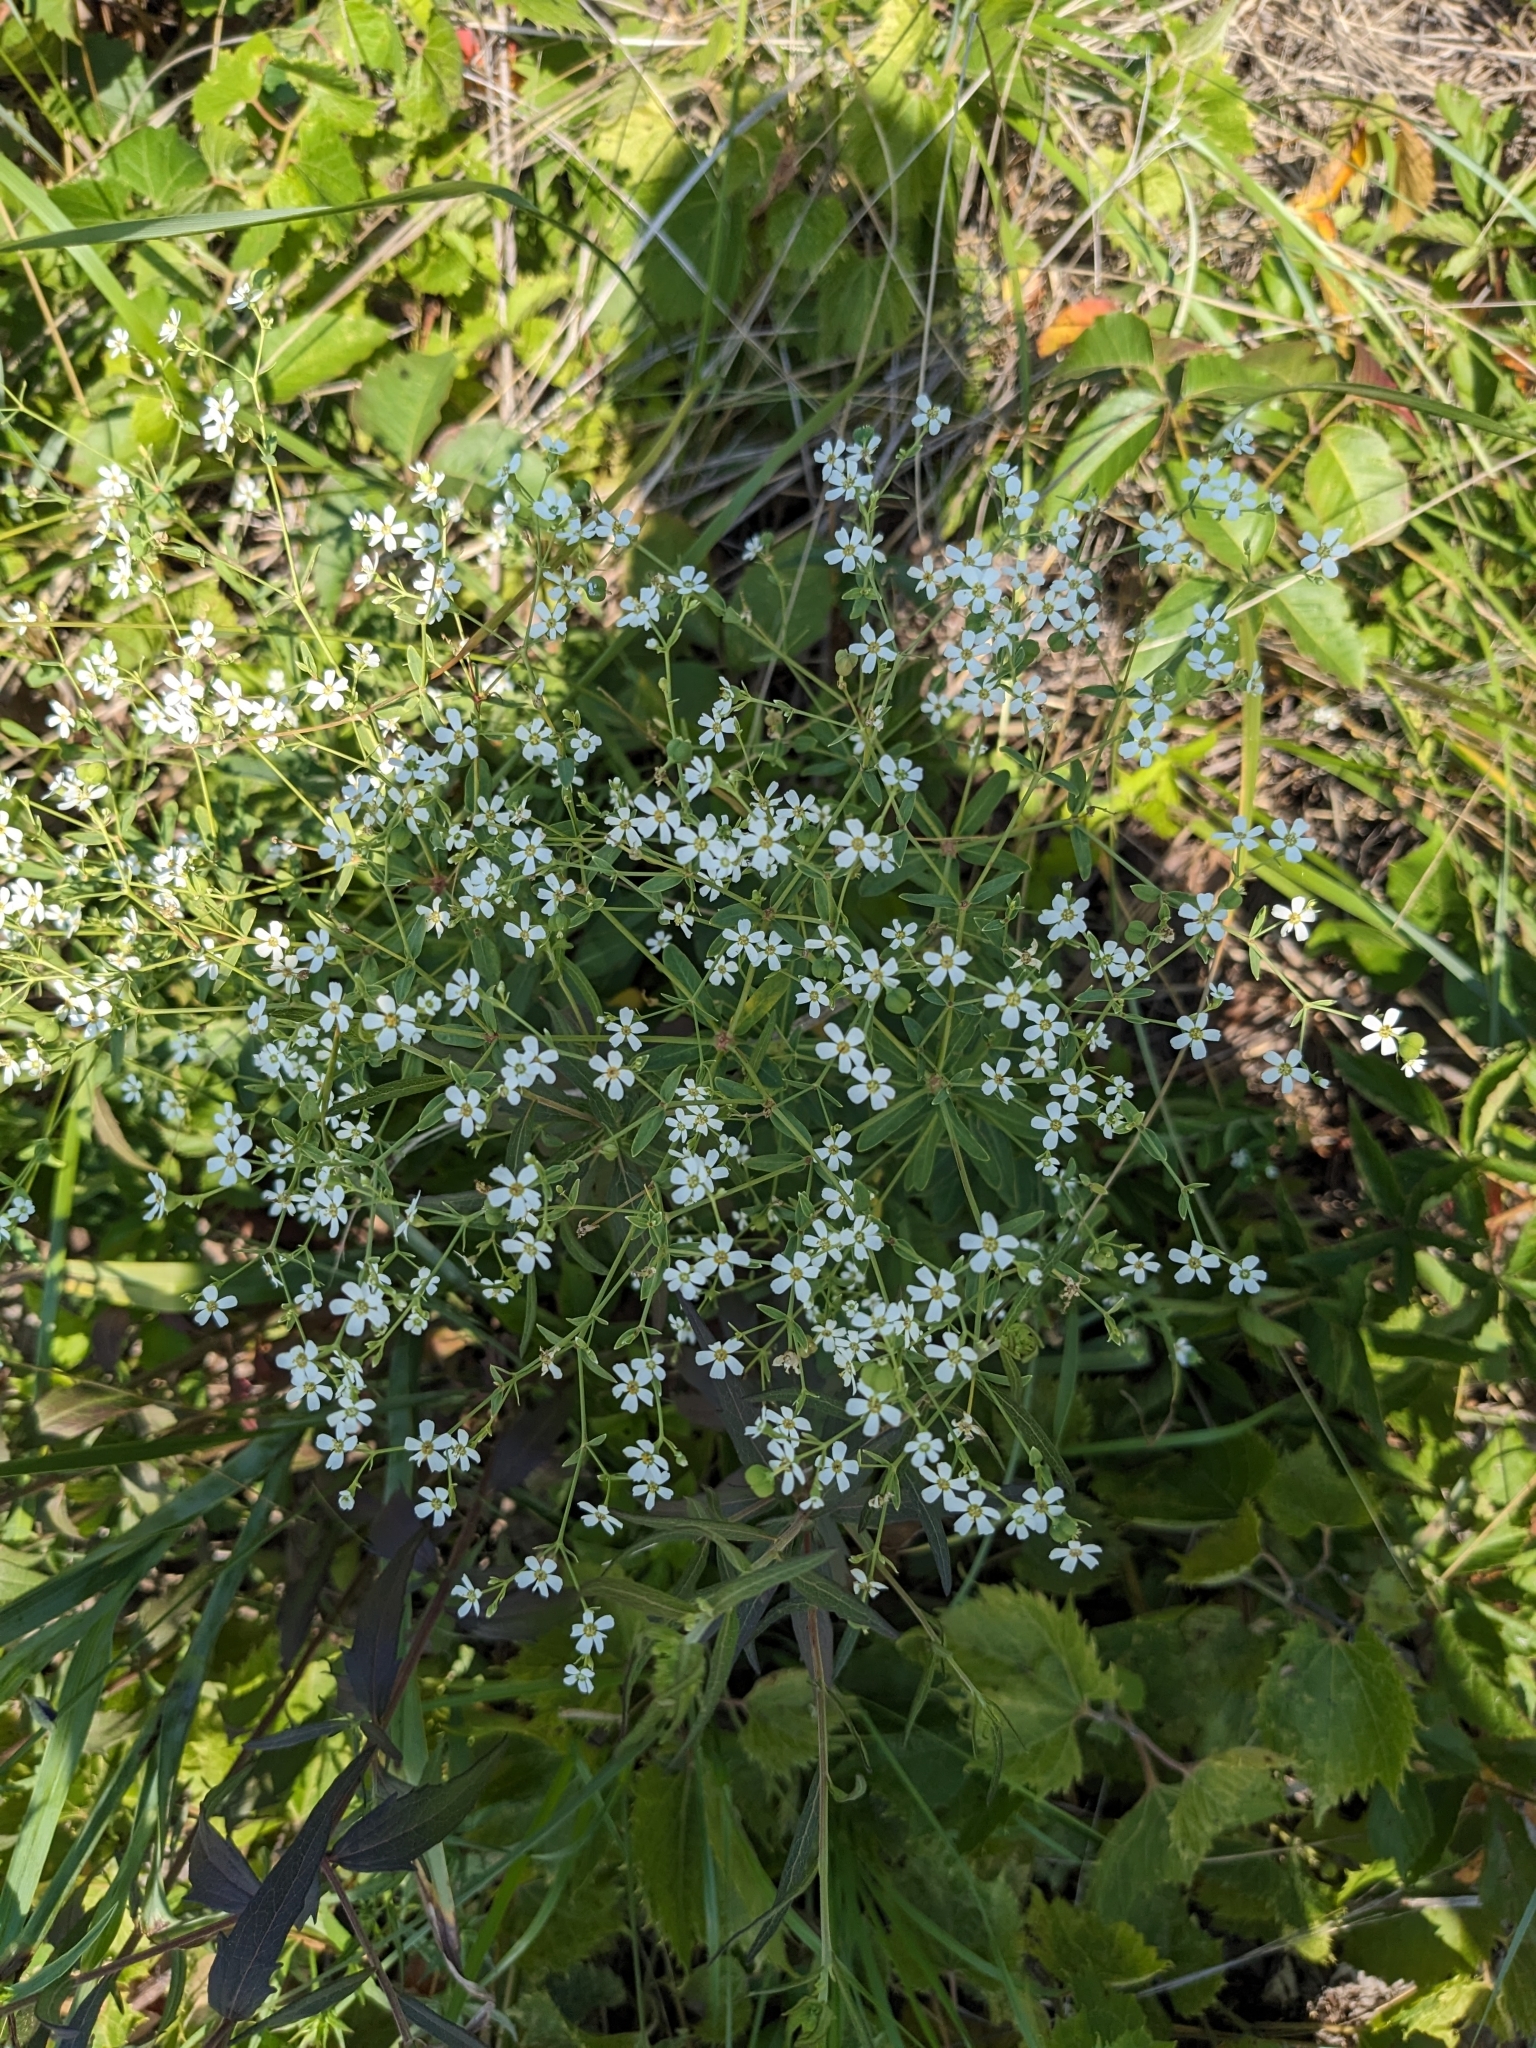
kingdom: Plantae
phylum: Tracheophyta
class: Magnoliopsida
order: Malpighiales
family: Euphorbiaceae
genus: Euphorbia
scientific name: Euphorbia corollata
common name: Flowering spurge
